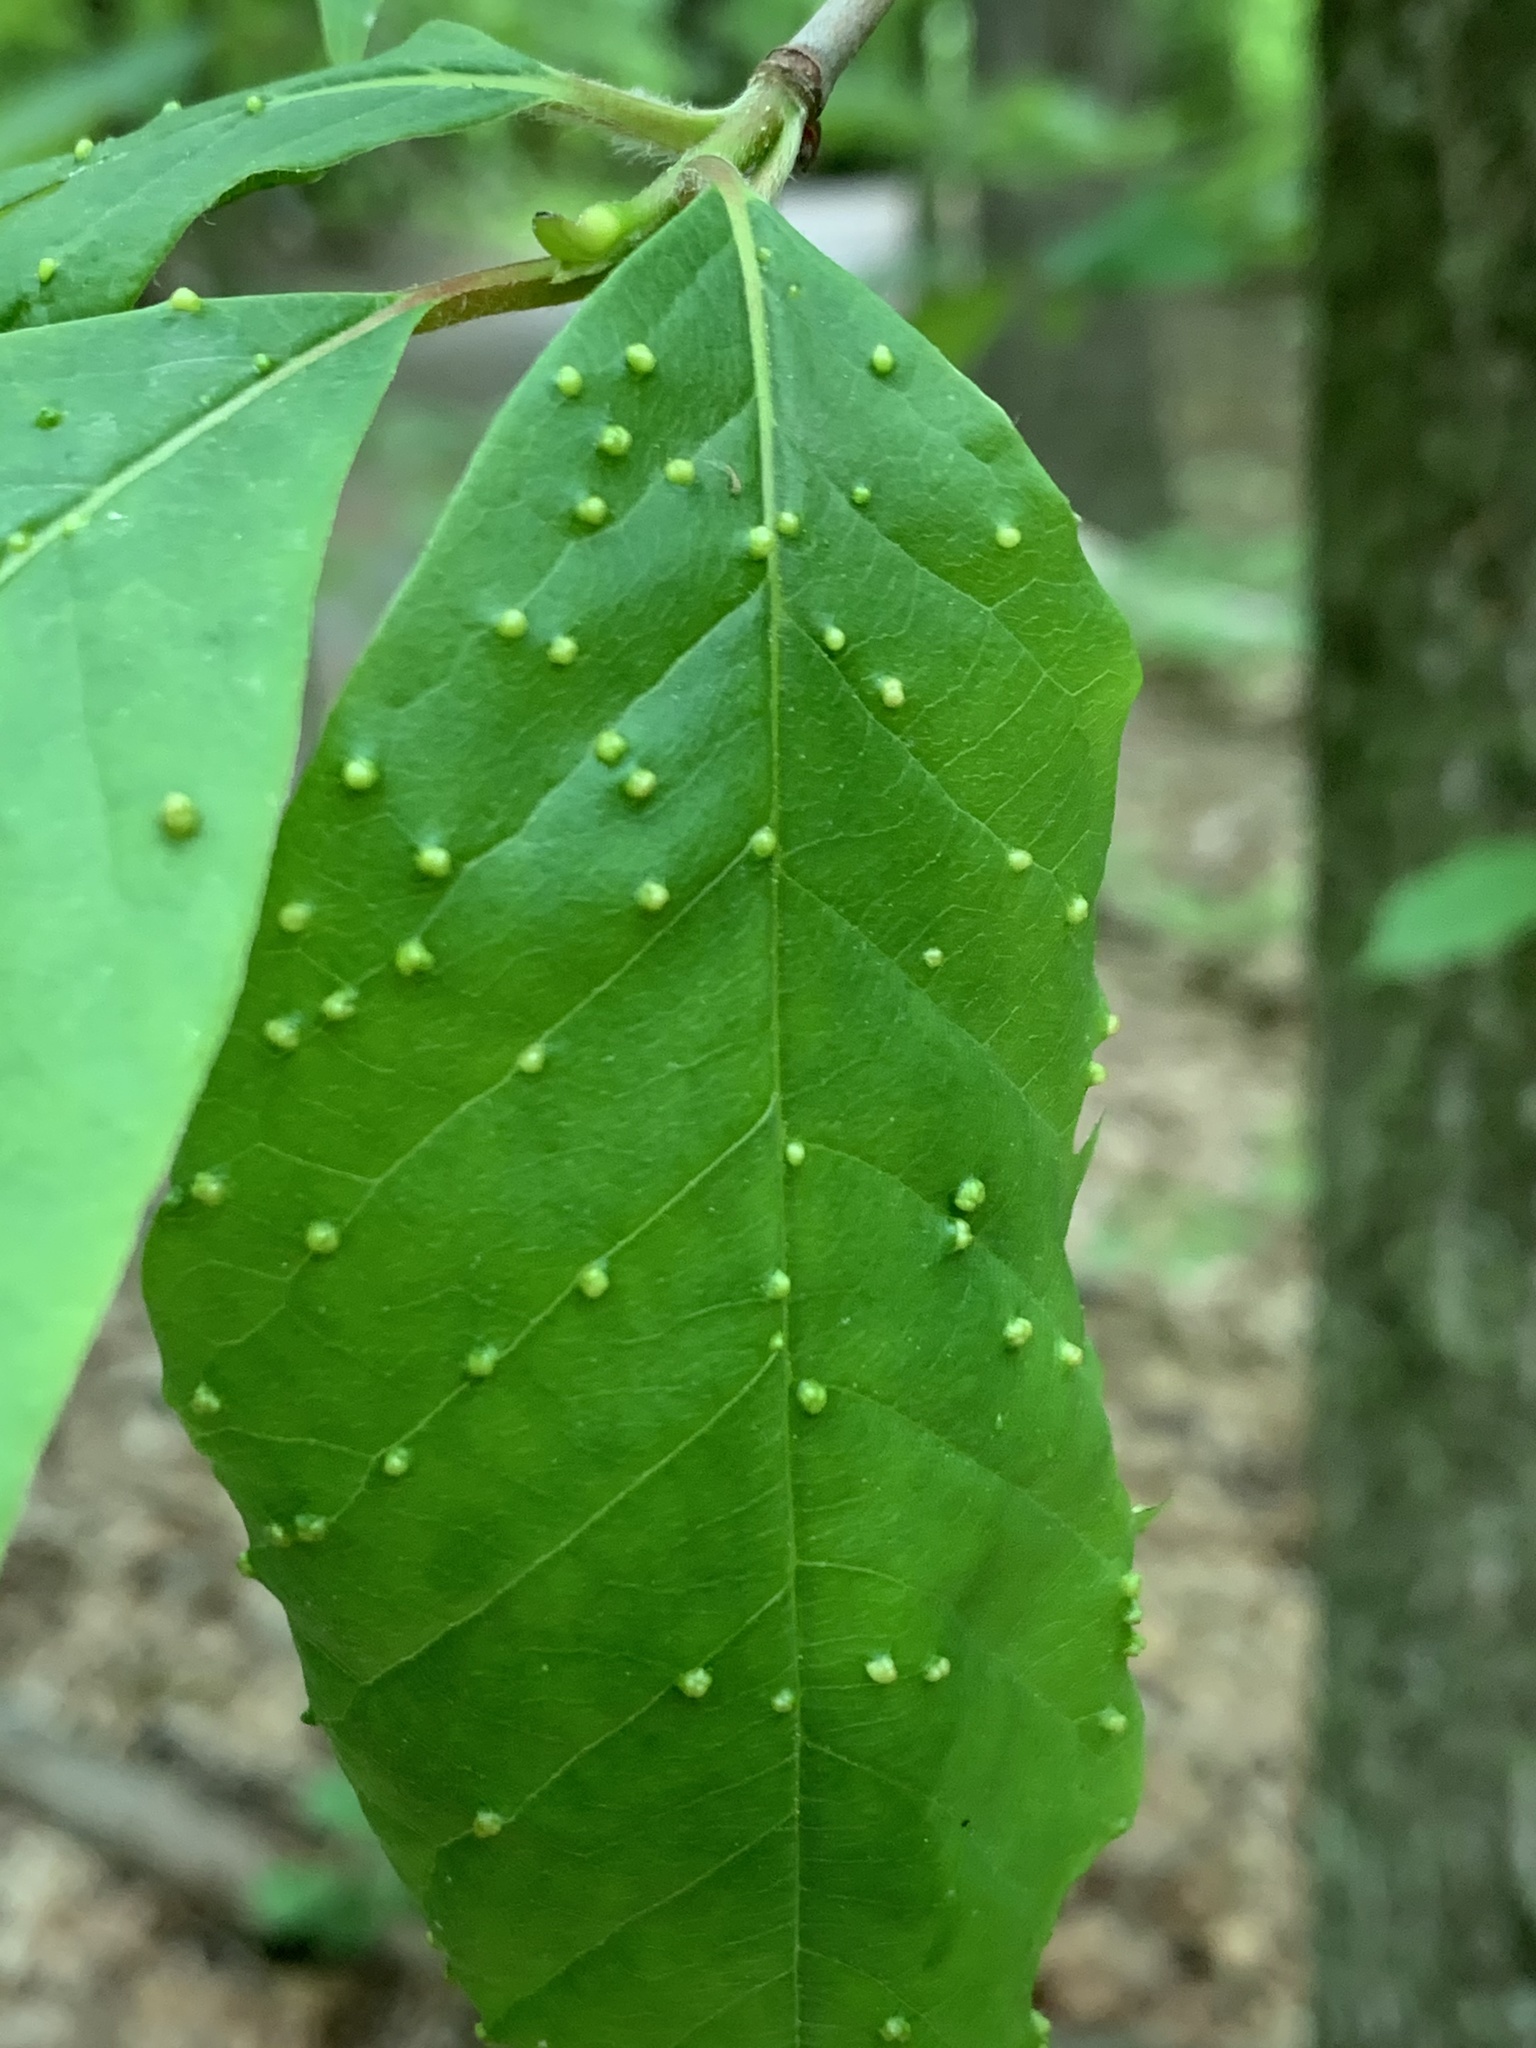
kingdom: Animalia
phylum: Arthropoda
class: Arachnida
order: Trombidiformes
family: Eriophyidae
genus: Aceria
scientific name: Aceria
